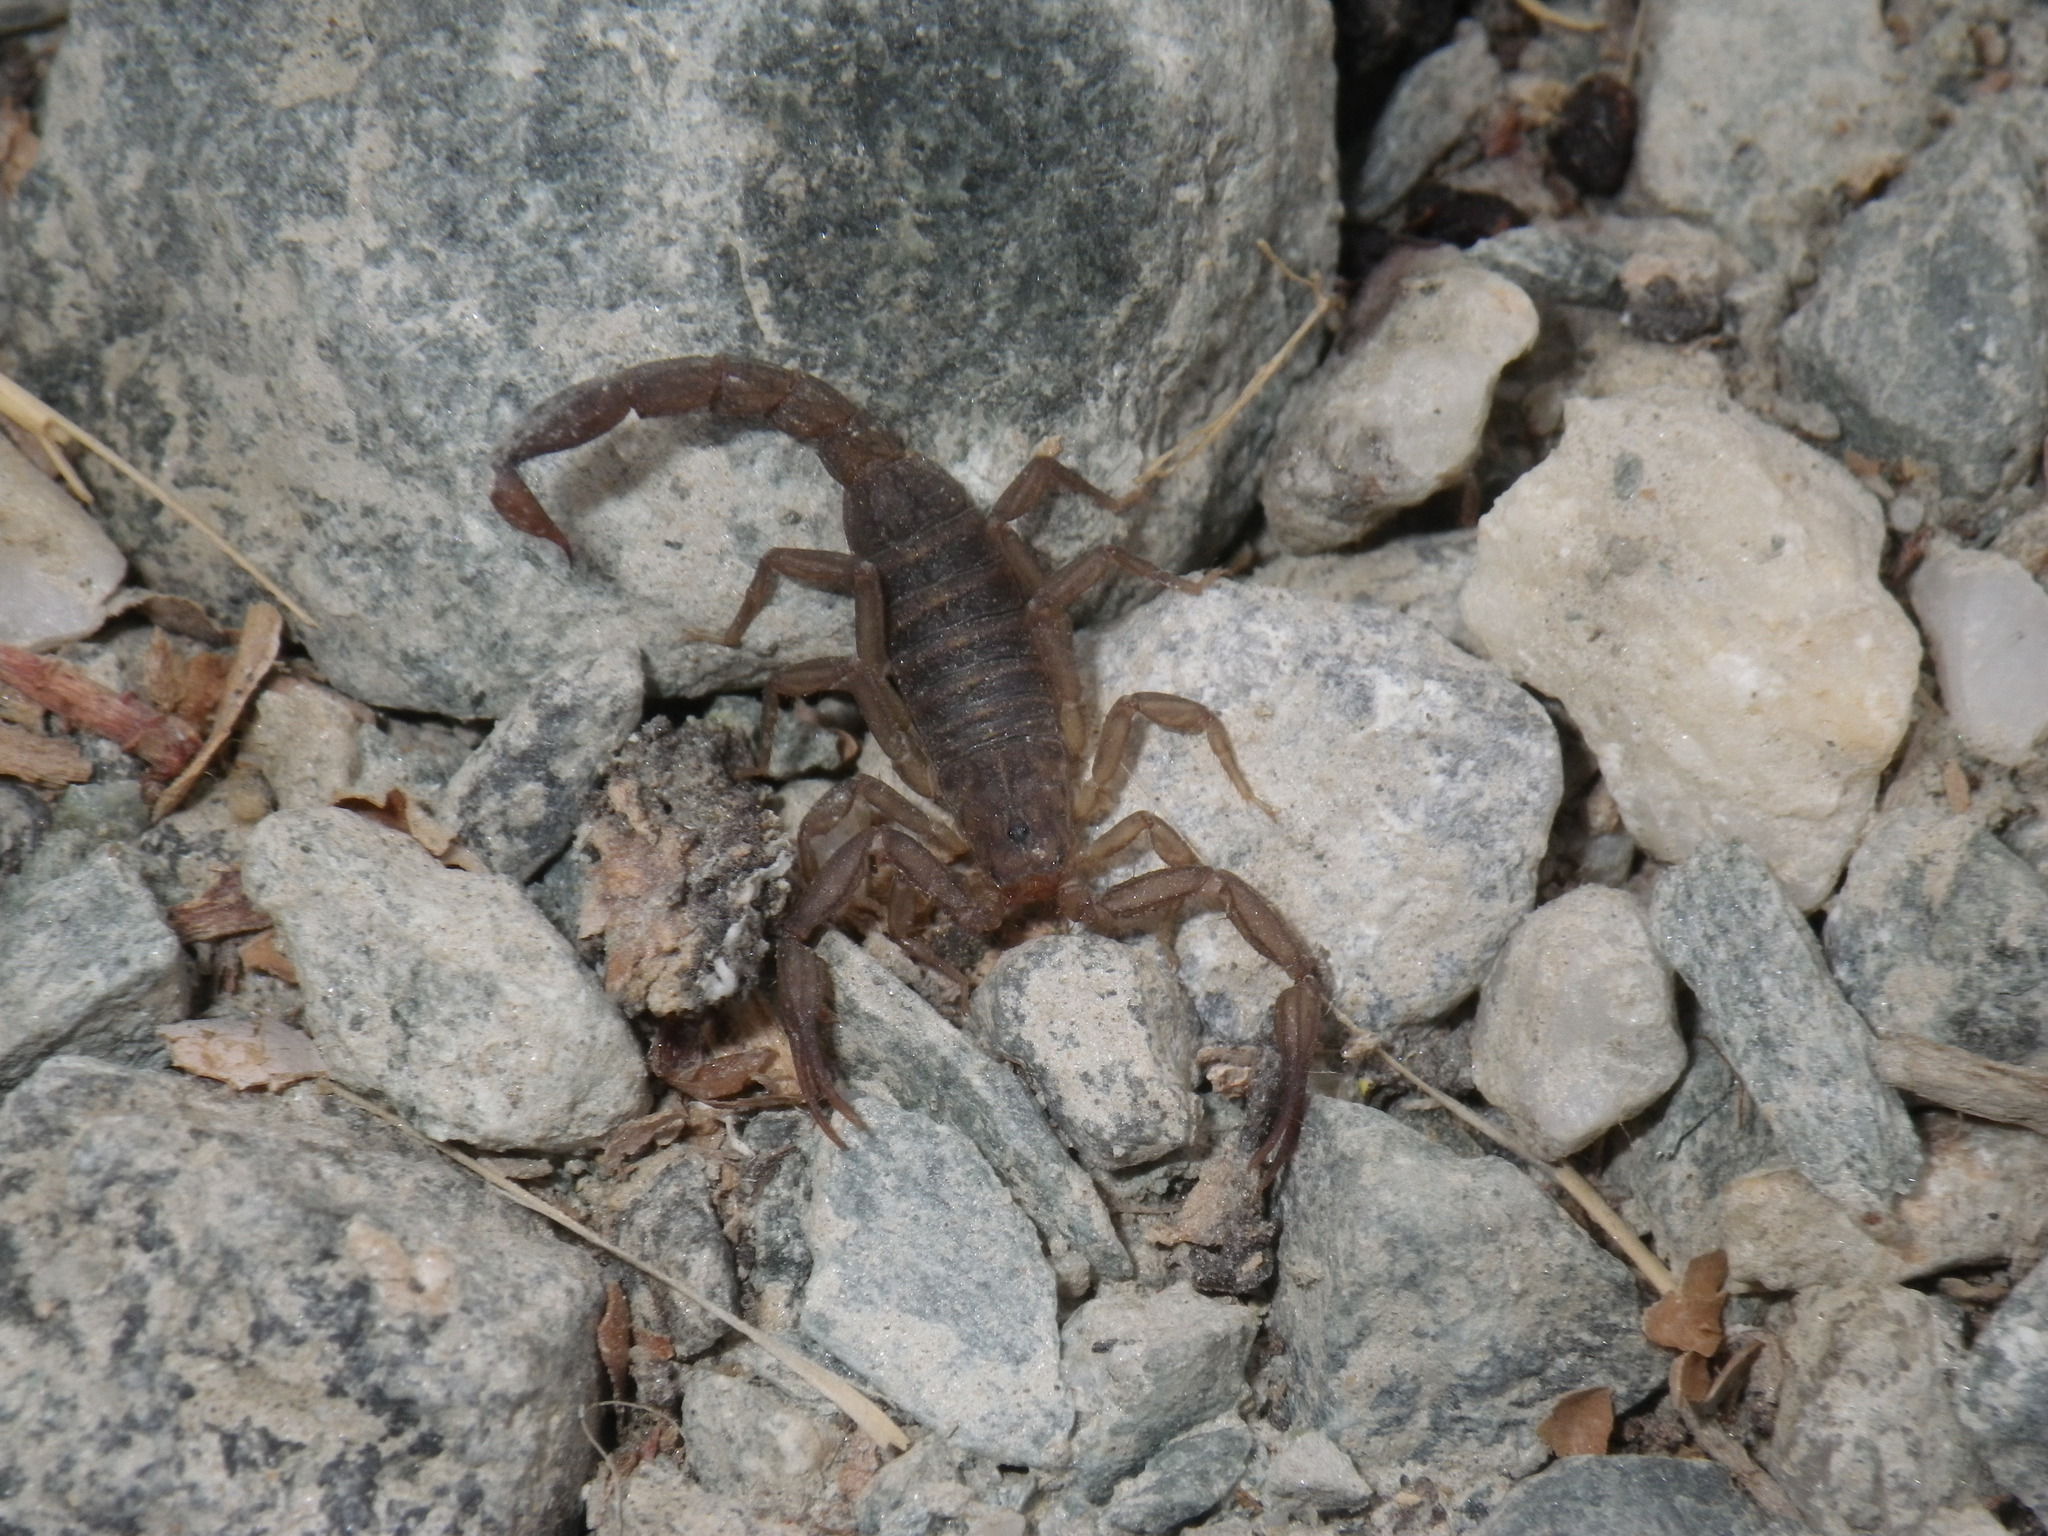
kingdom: Animalia
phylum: Arthropoda
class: Arachnida
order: Scorpiones
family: Vaejovidae
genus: Serradigitus
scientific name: Serradigitus gertschi
